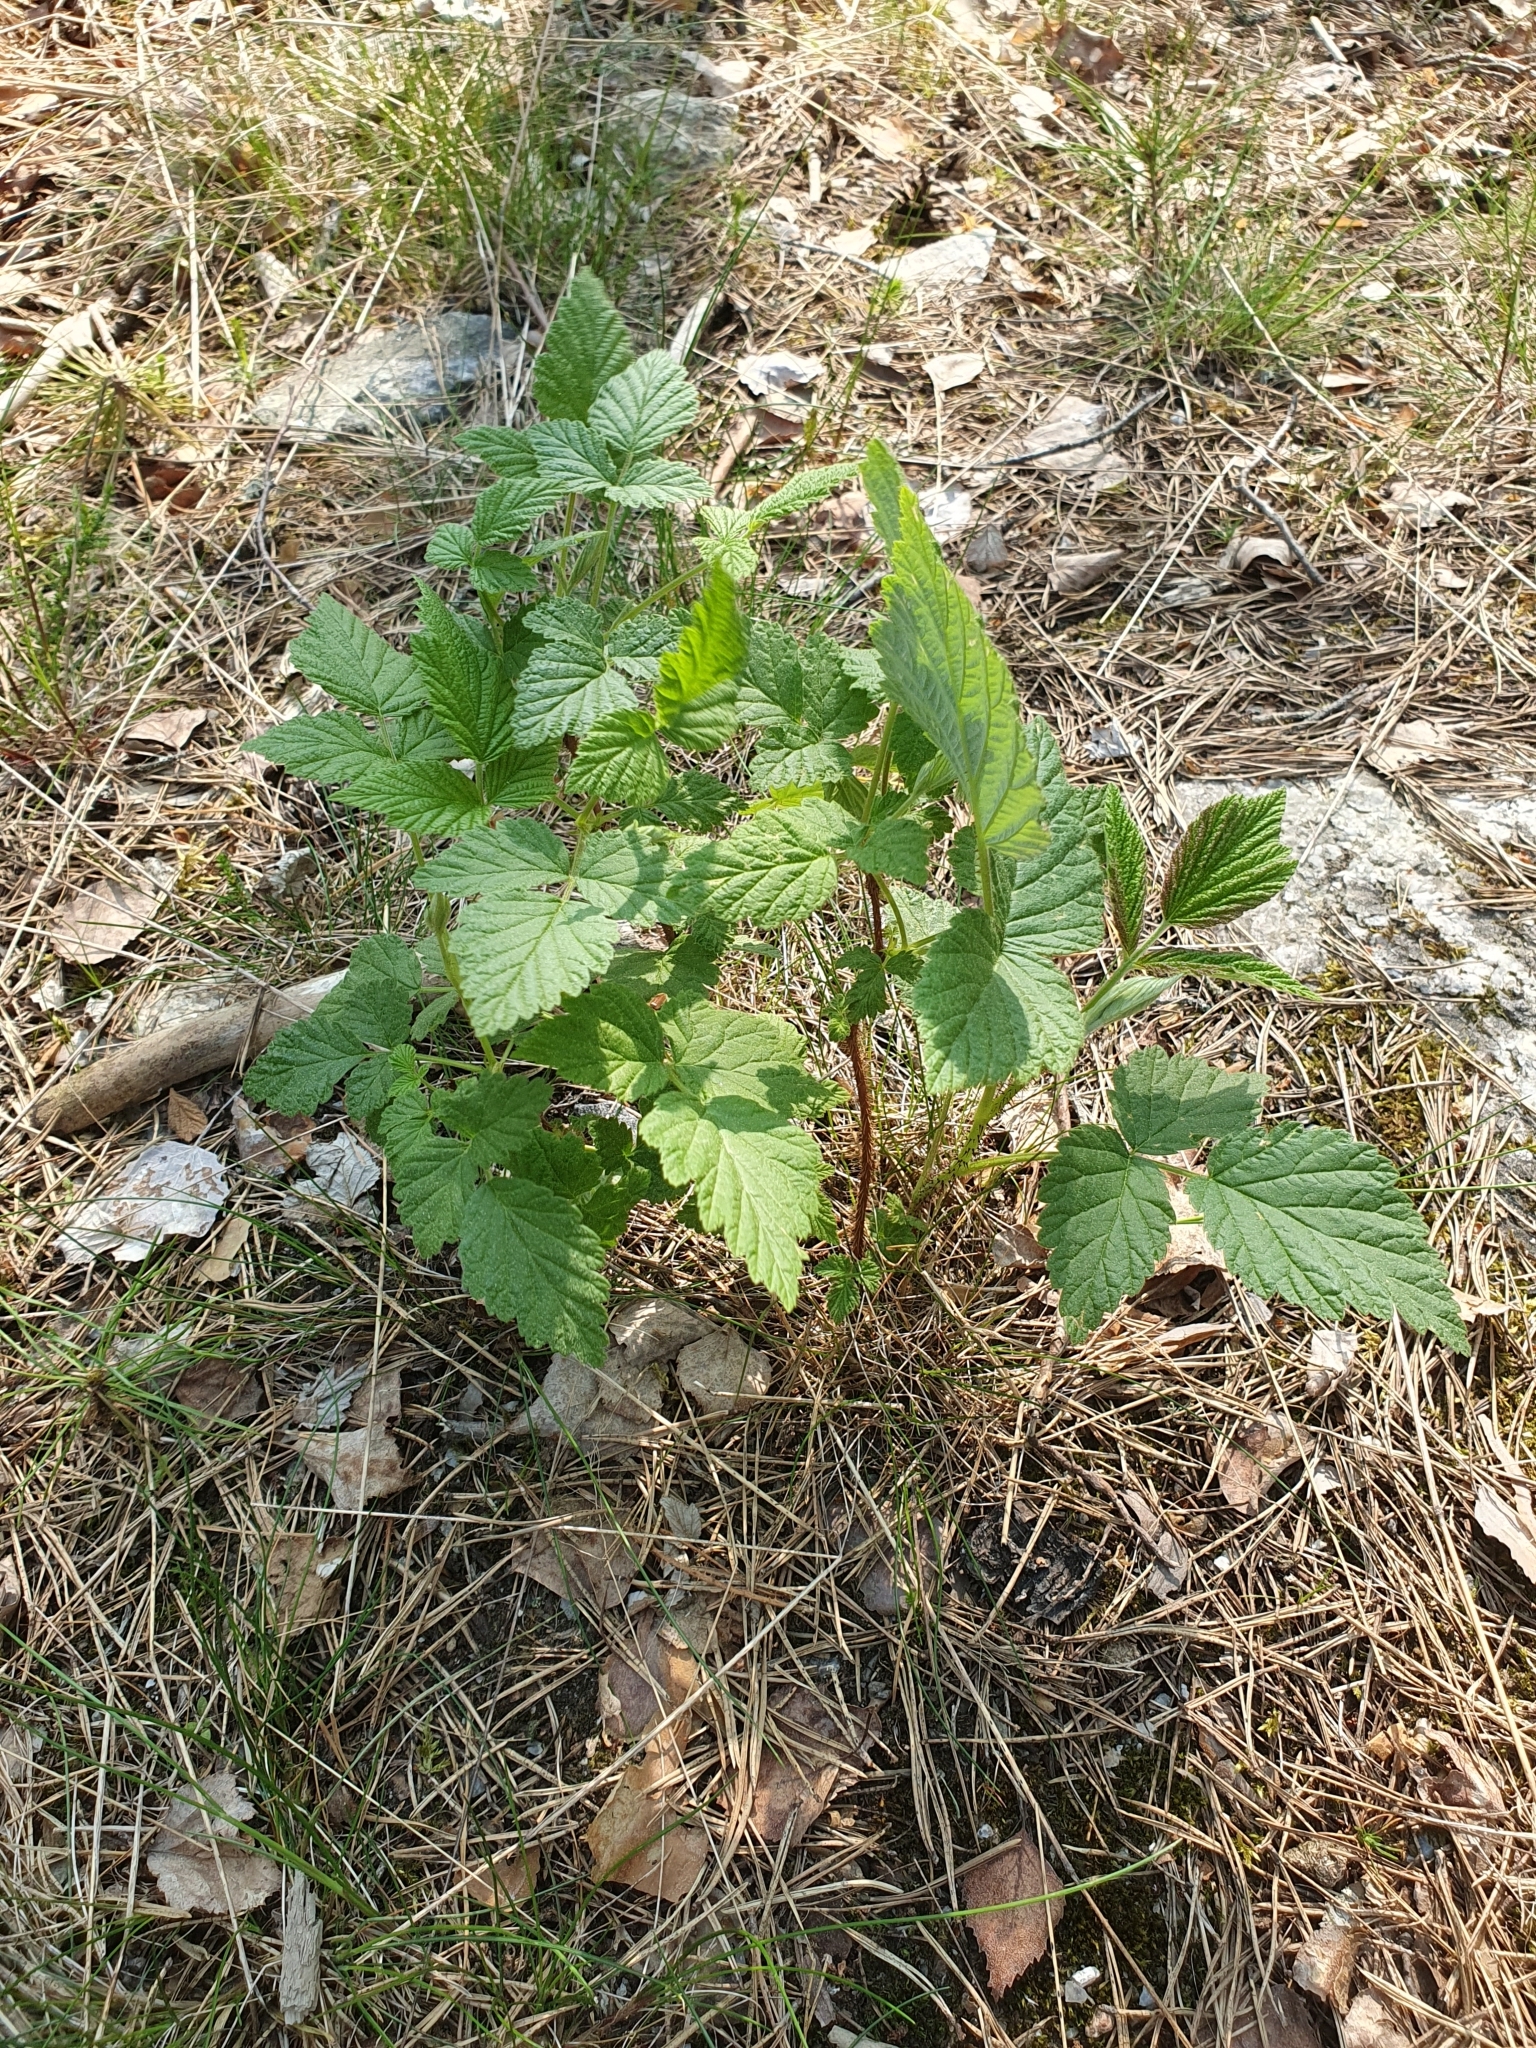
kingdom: Plantae
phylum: Tracheophyta
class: Magnoliopsida
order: Rosales
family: Rosaceae
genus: Rubus
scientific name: Rubus idaeus
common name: Raspberry
